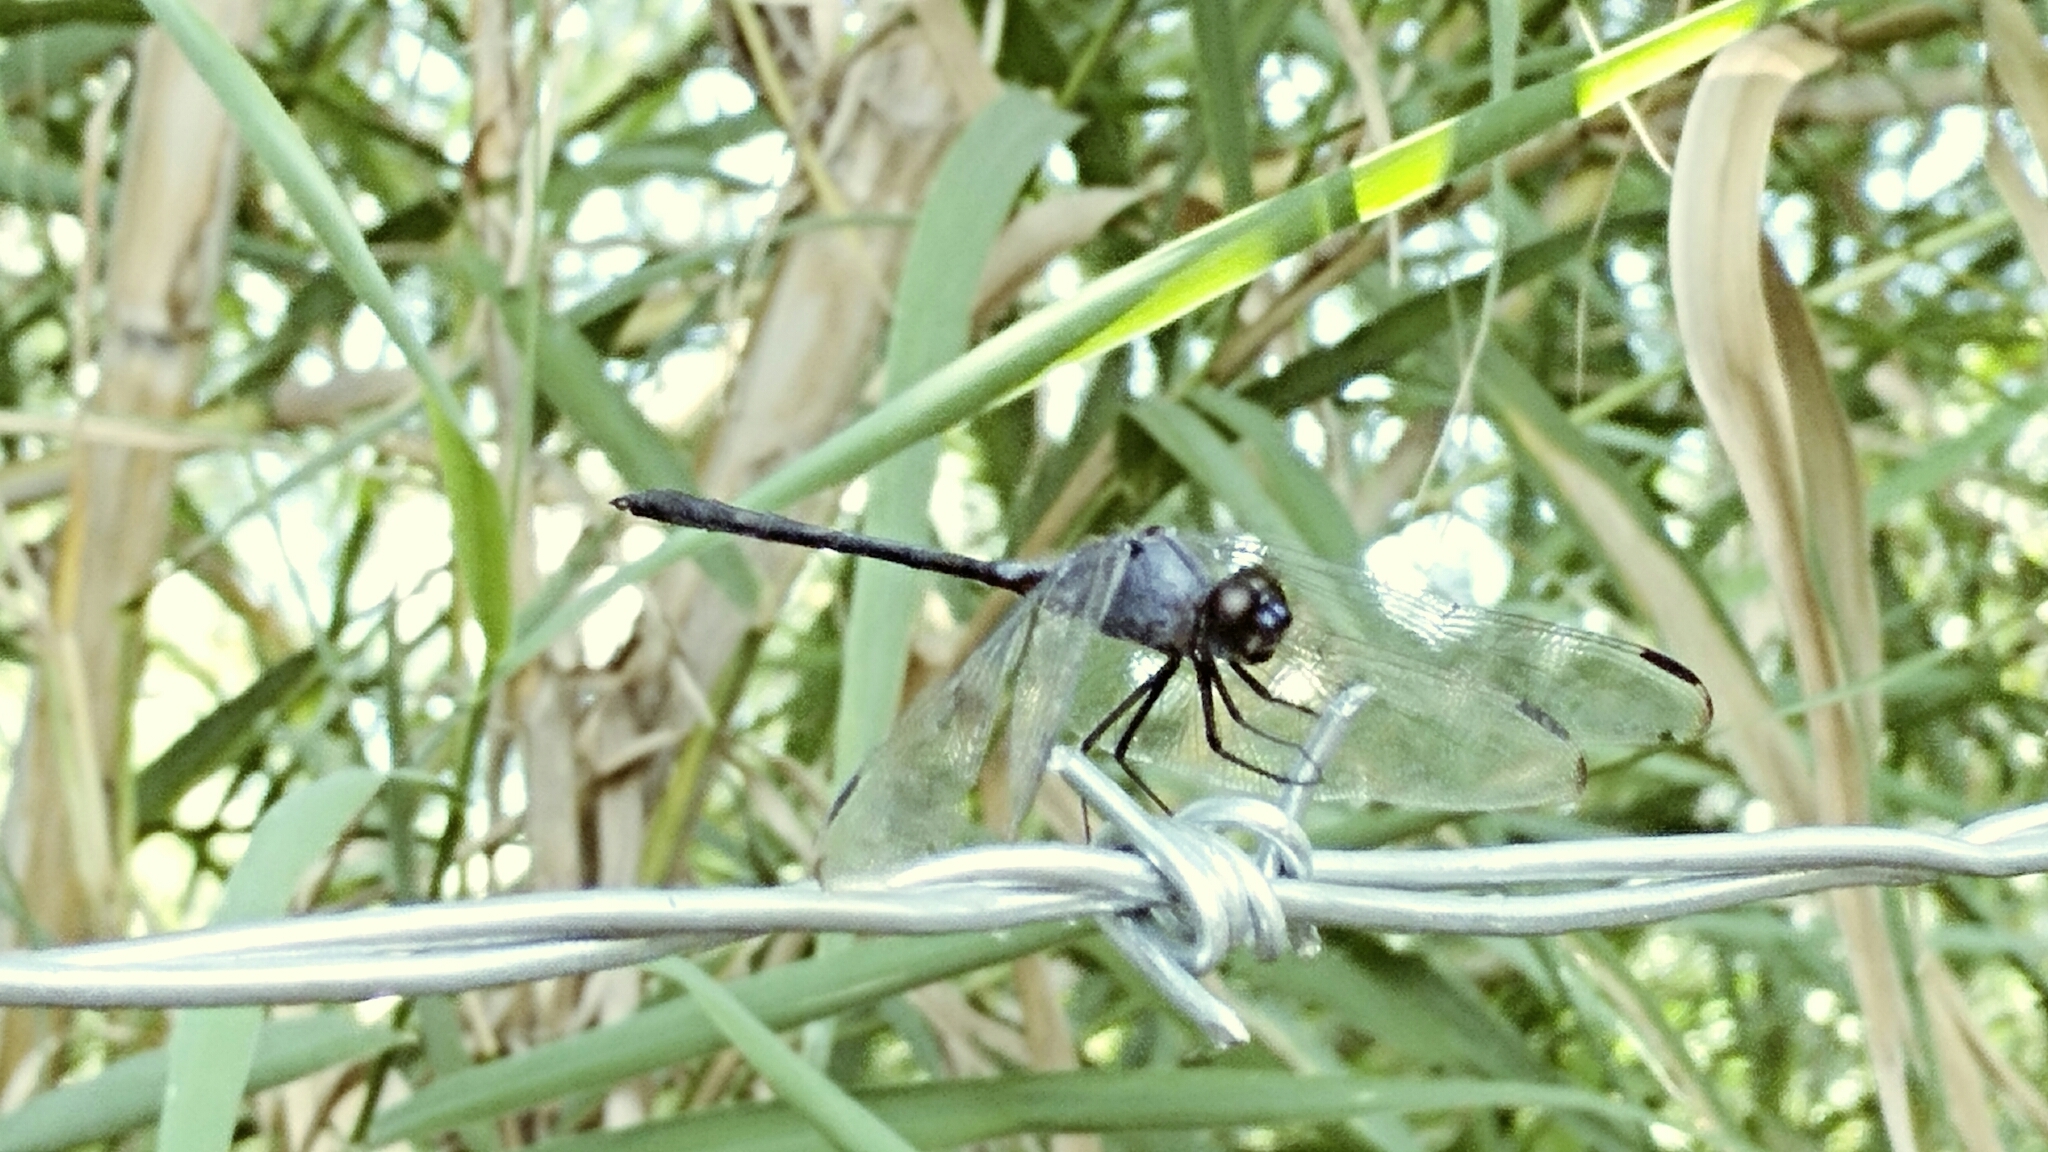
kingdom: Animalia
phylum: Arthropoda
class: Insecta
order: Odonata
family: Libellulidae
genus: Dythemis
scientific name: Dythemis nigrescens
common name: Black setwing
